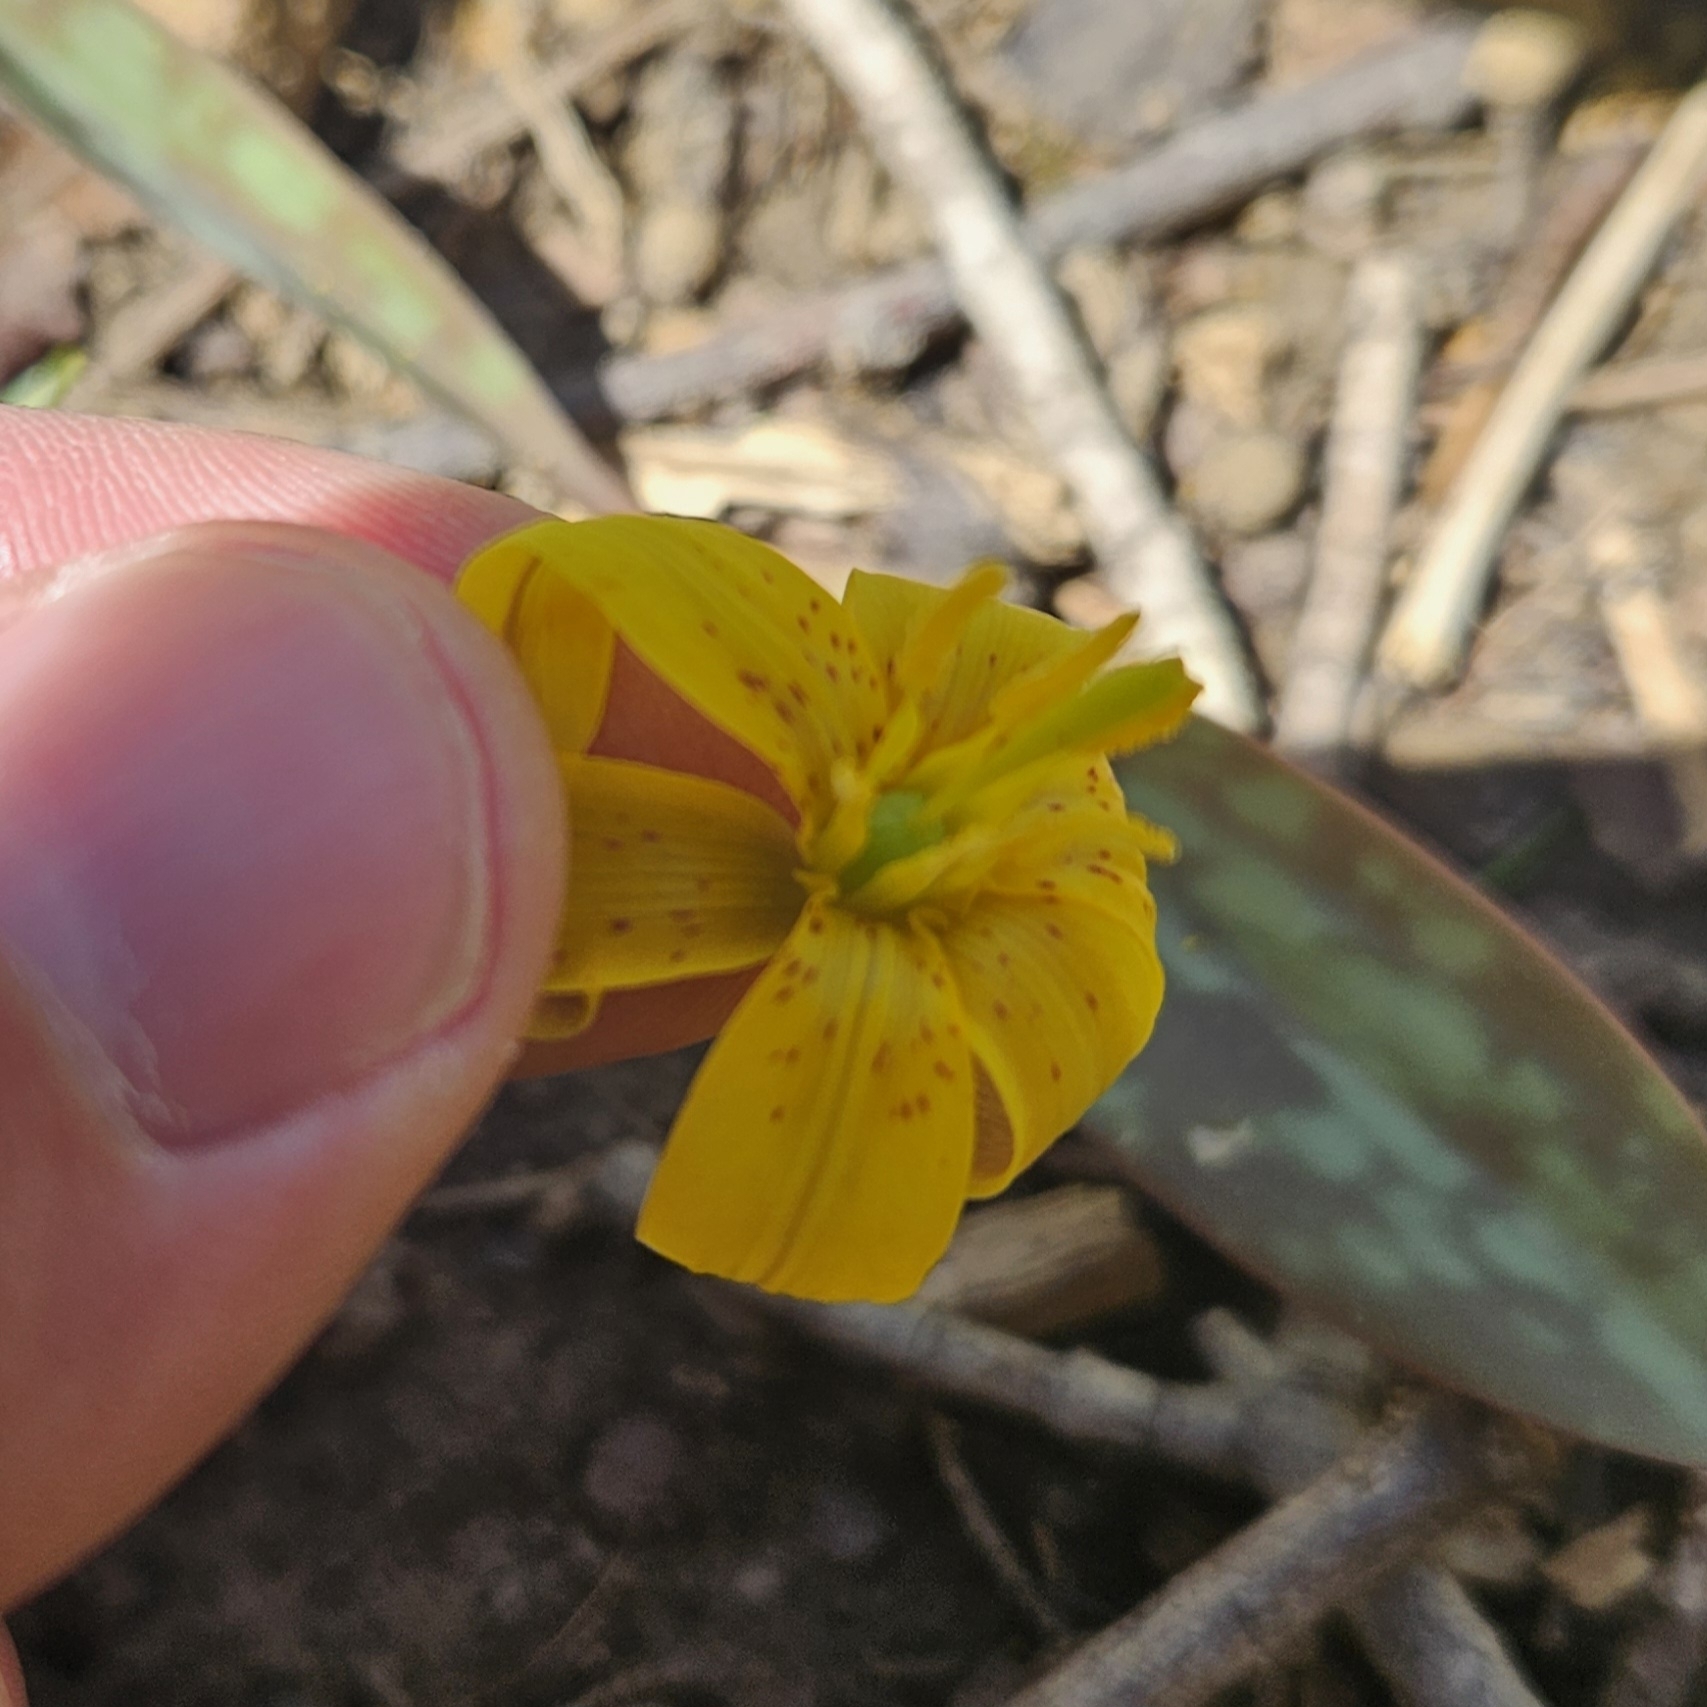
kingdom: Plantae
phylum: Tracheophyta
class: Liliopsida
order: Liliales
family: Liliaceae
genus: Erythronium
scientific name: Erythronium americanum
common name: Yellow adder's-tongue
